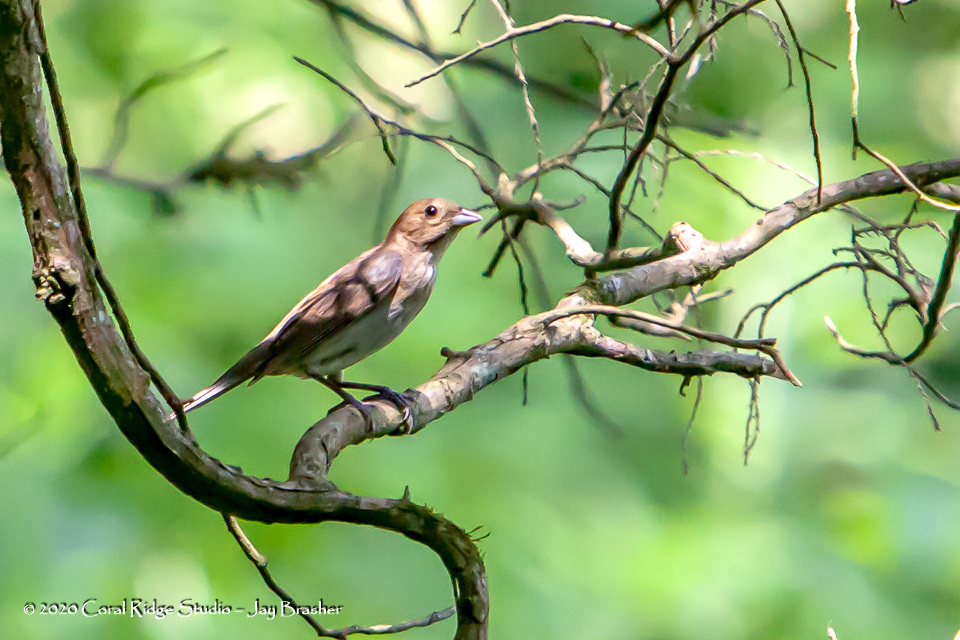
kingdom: Animalia
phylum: Chordata
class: Aves
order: Passeriformes
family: Cardinalidae
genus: Passerina
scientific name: Passerina cyanea
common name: Indigo bunting
